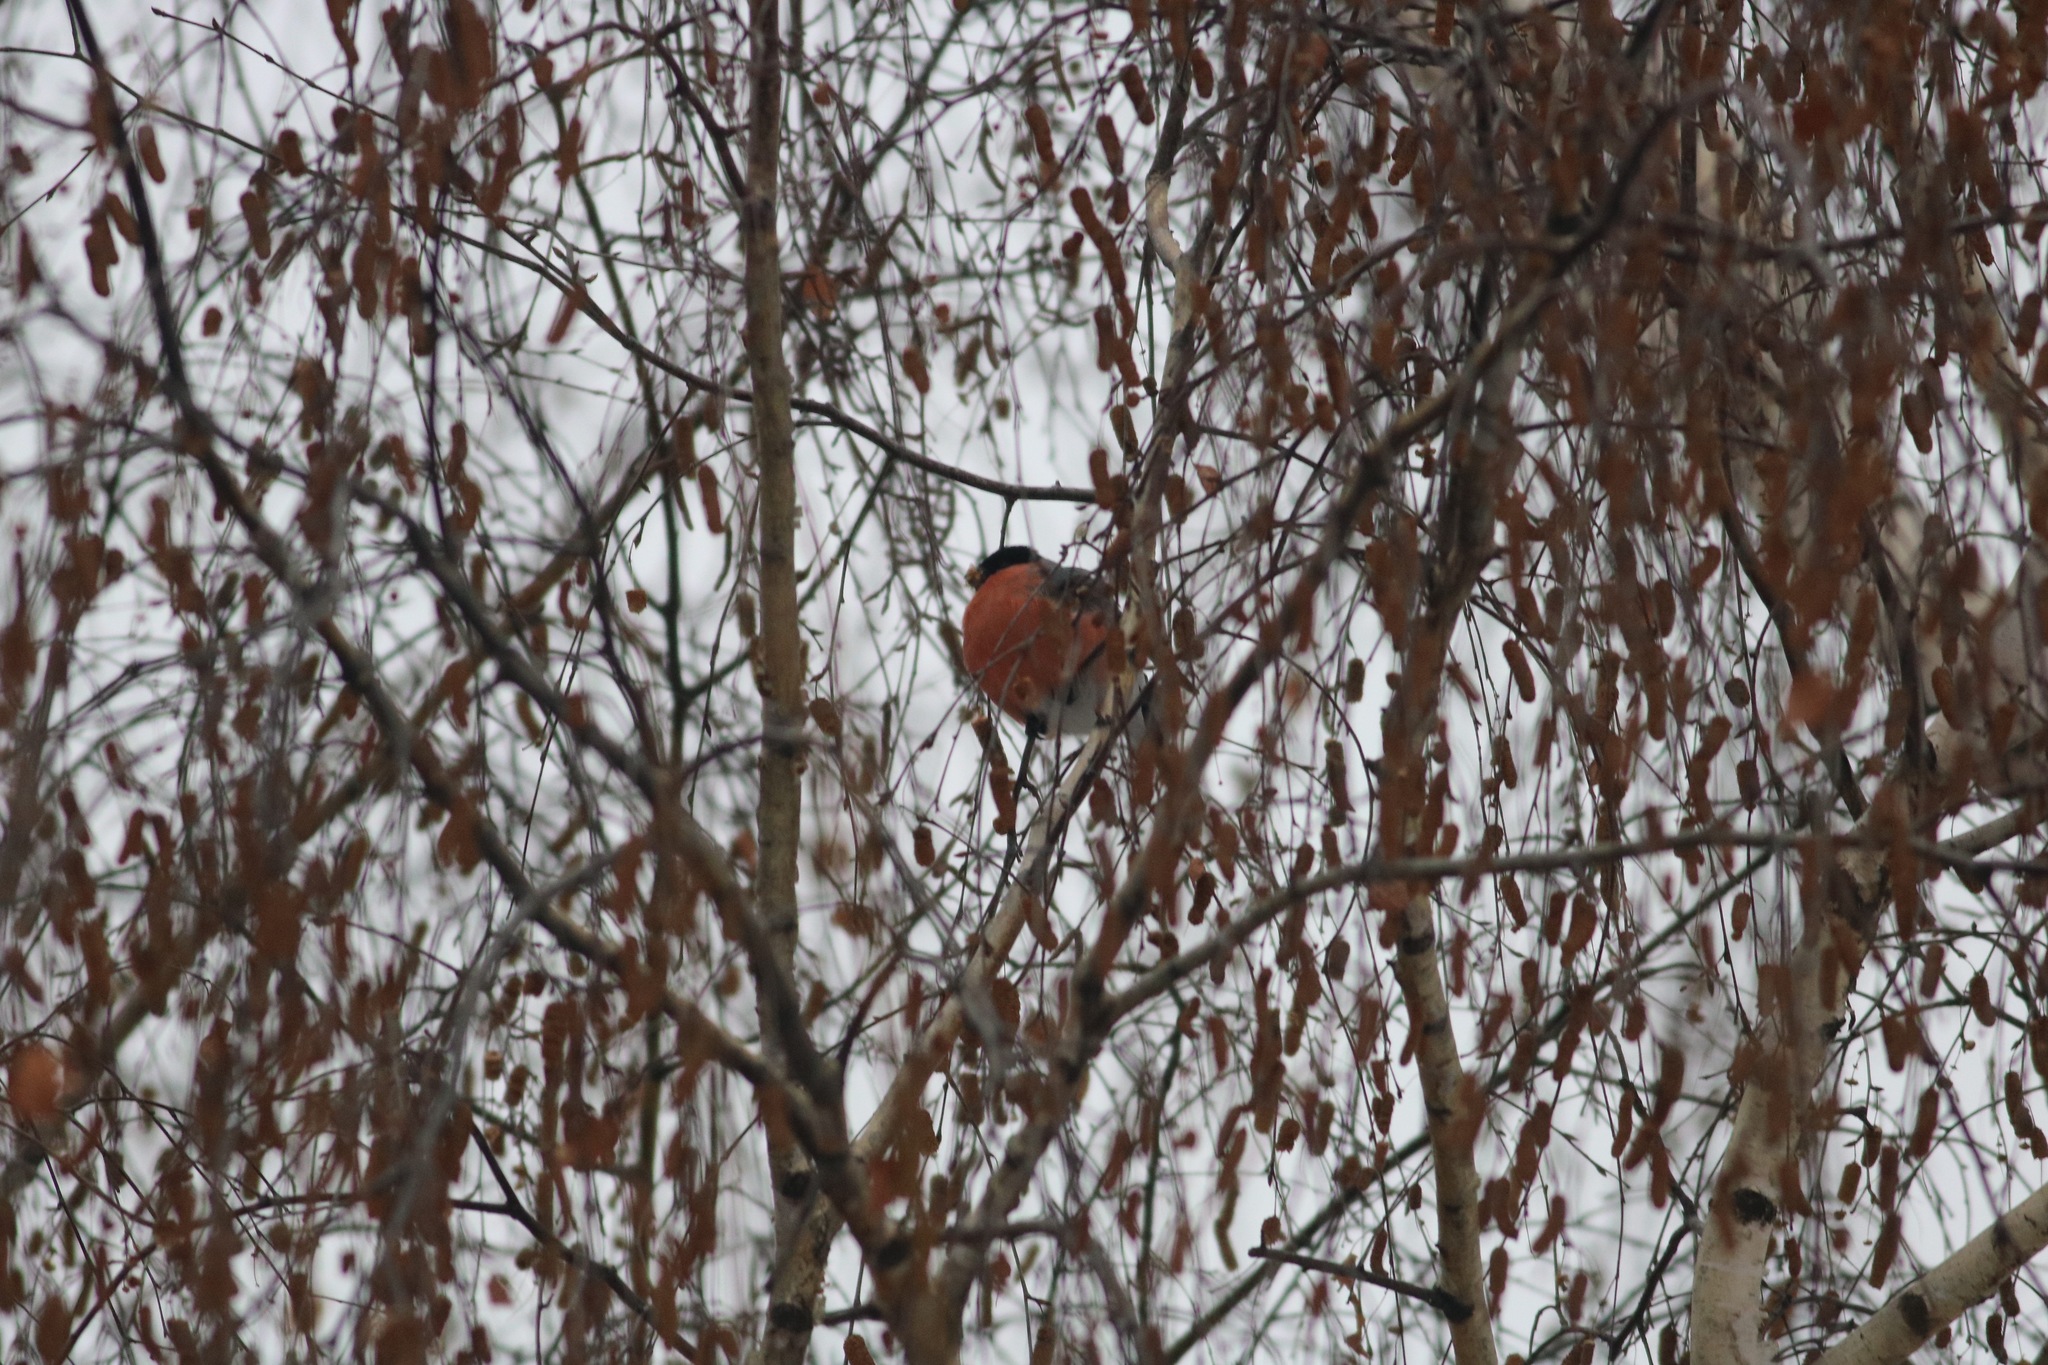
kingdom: Animalia
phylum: Chordata
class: Aves
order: Passeriformes
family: Fringillidae
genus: Pyrrhula
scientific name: Pyrrhula pyrrhula
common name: Eurasian bullfinch
